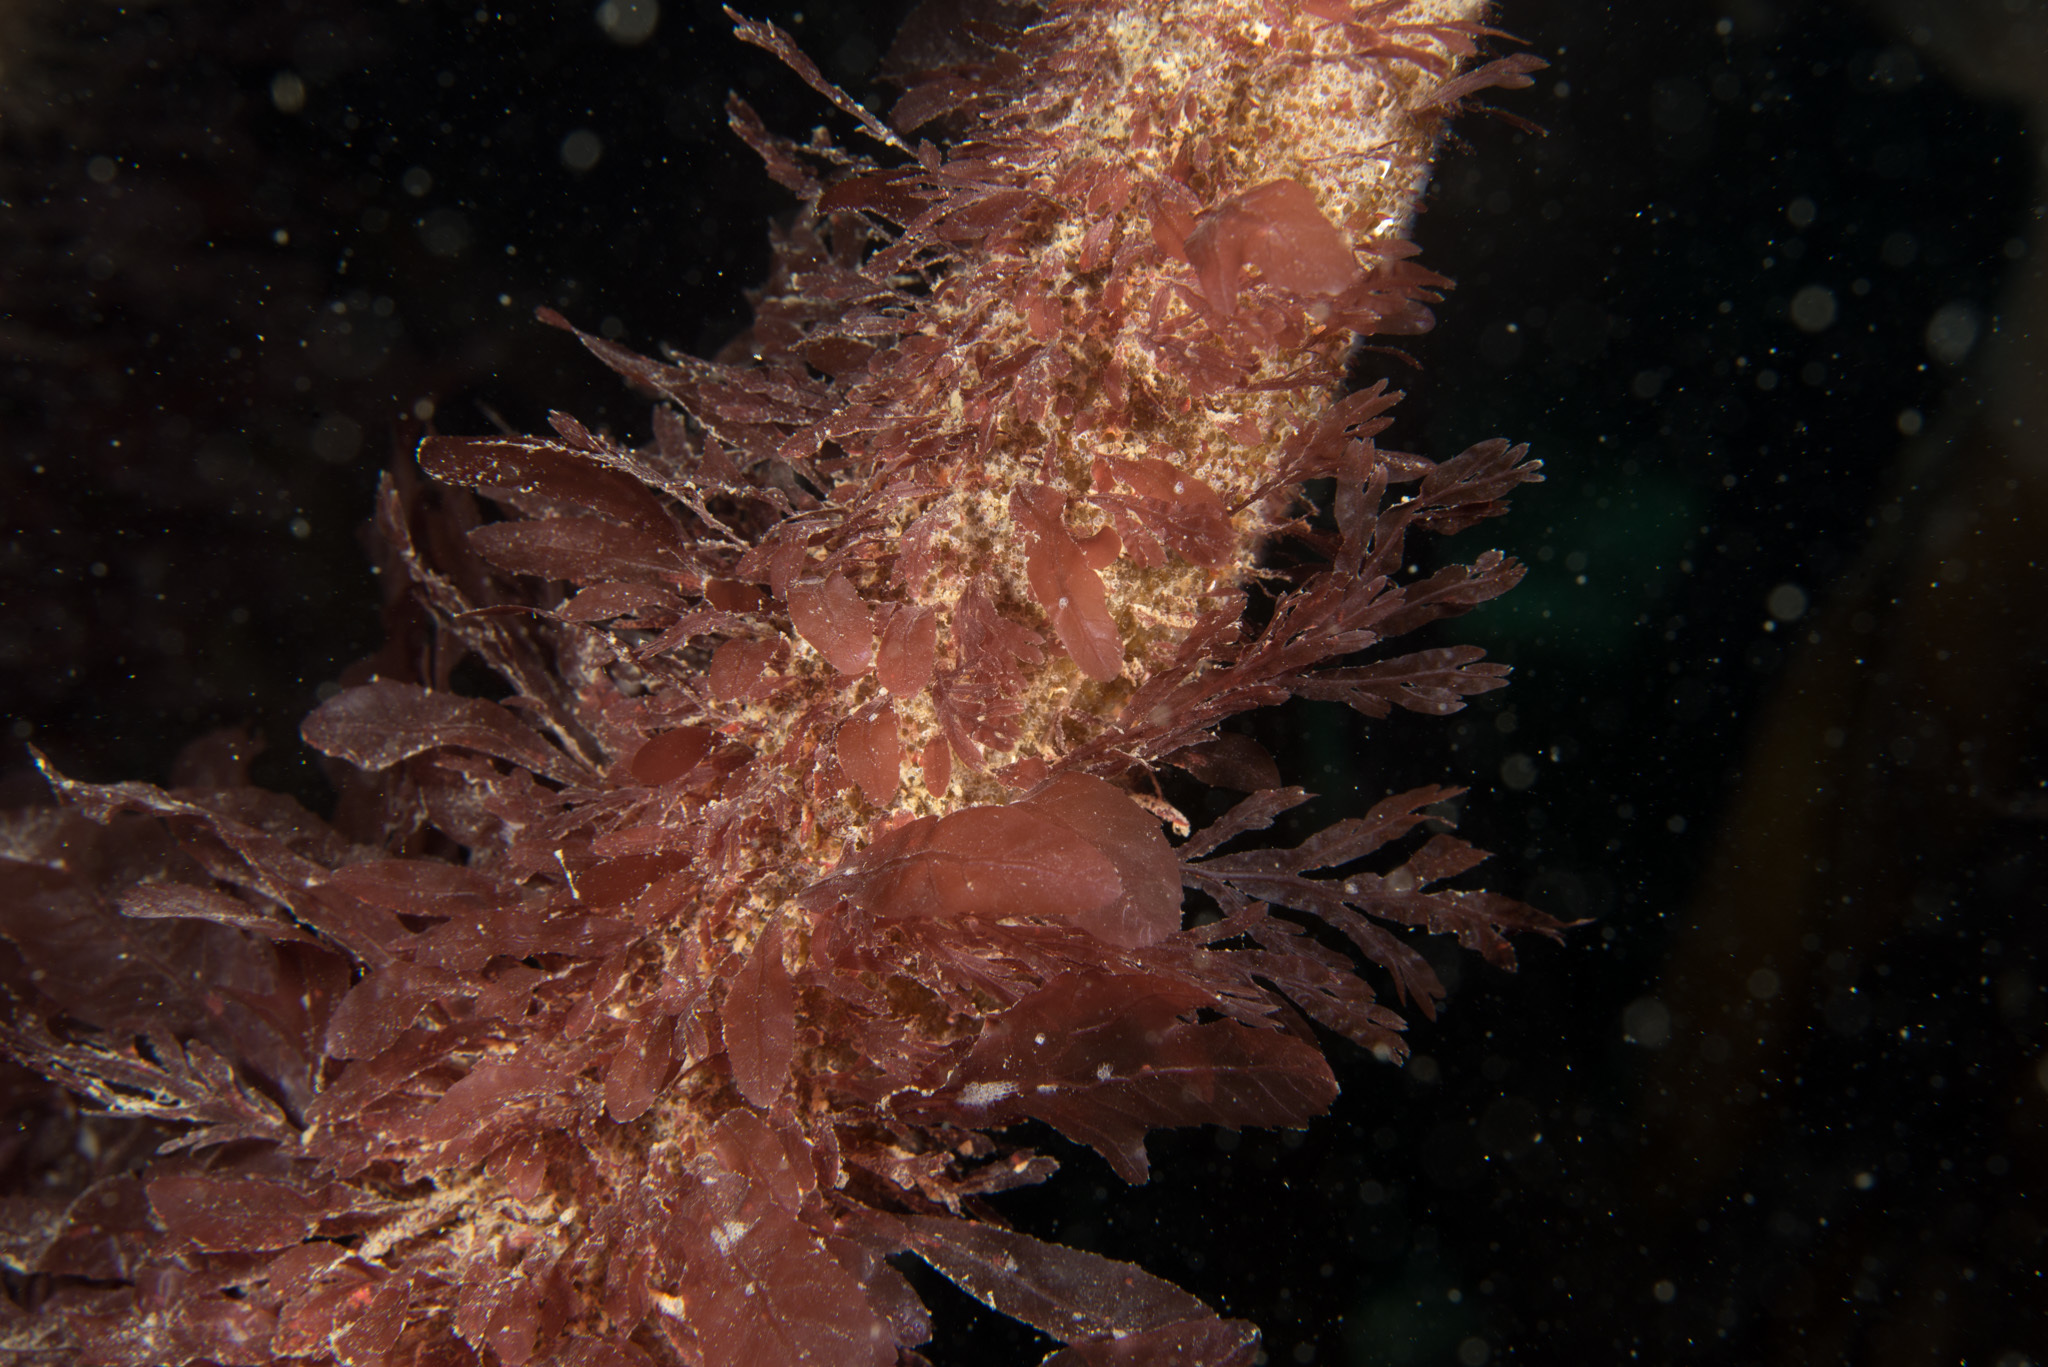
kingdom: Plantae
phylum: Rhodophyta
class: Florideophyceae
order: Ceramiales
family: Delesseriaceae
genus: Membranoptera
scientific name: Membranoptera alata
